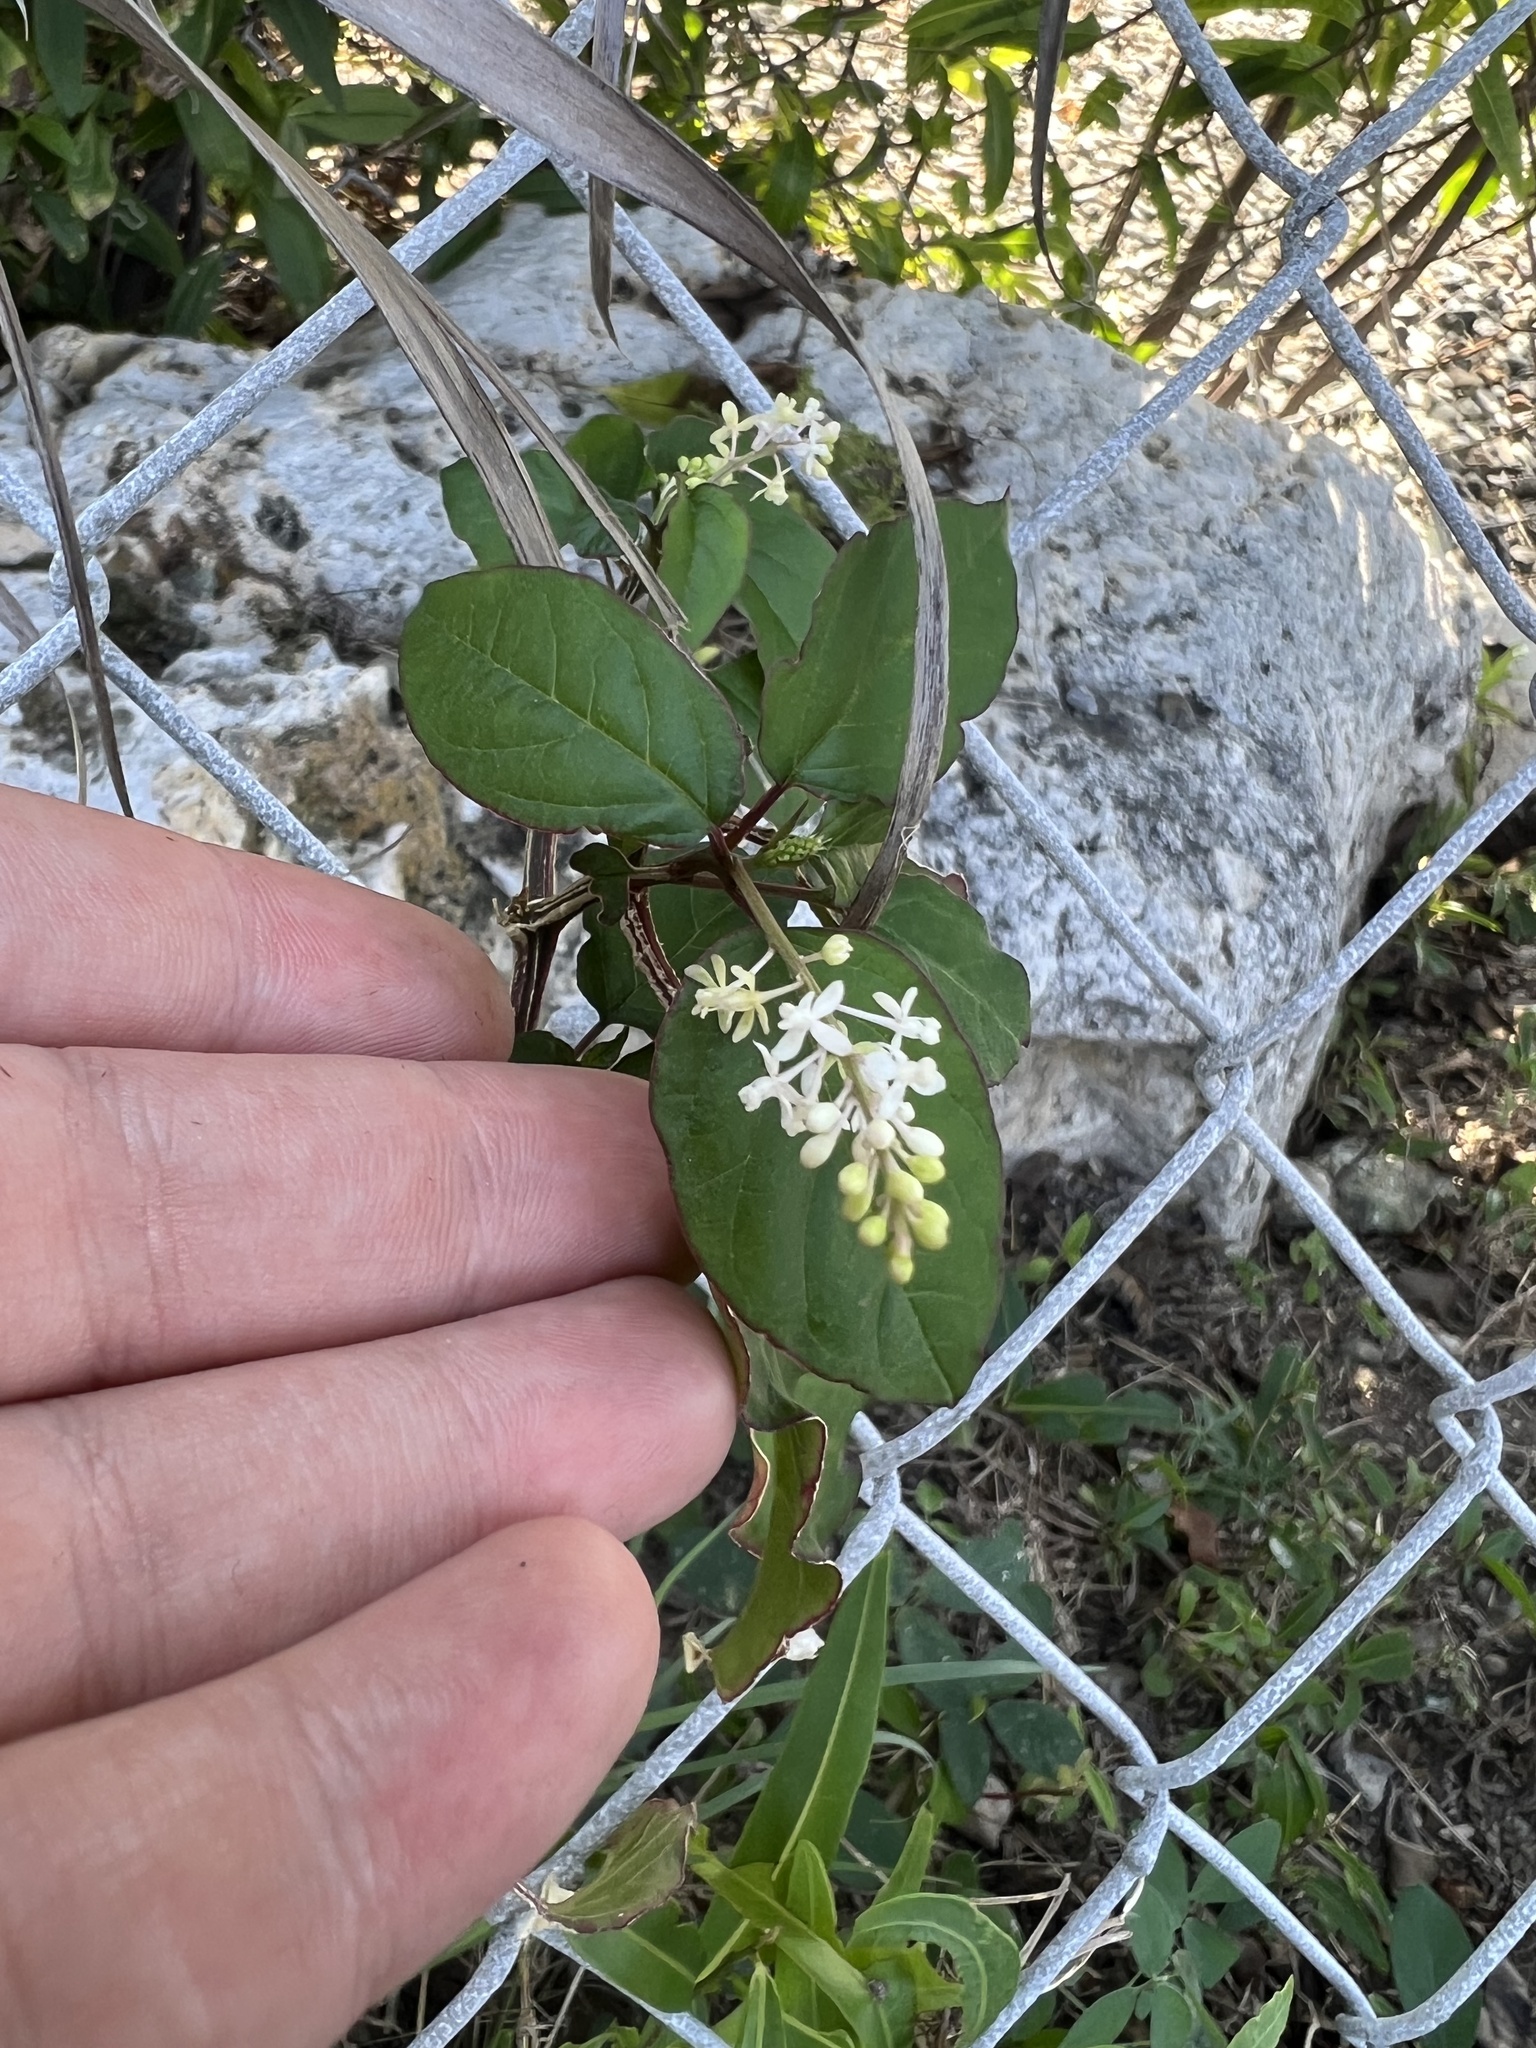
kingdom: Plantae
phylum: Tracheophyta
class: Magnoliopsida
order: Caryophyllales
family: Phytolaccaceae
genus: Rivina
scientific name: Rivina humilis
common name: Rougeplant
